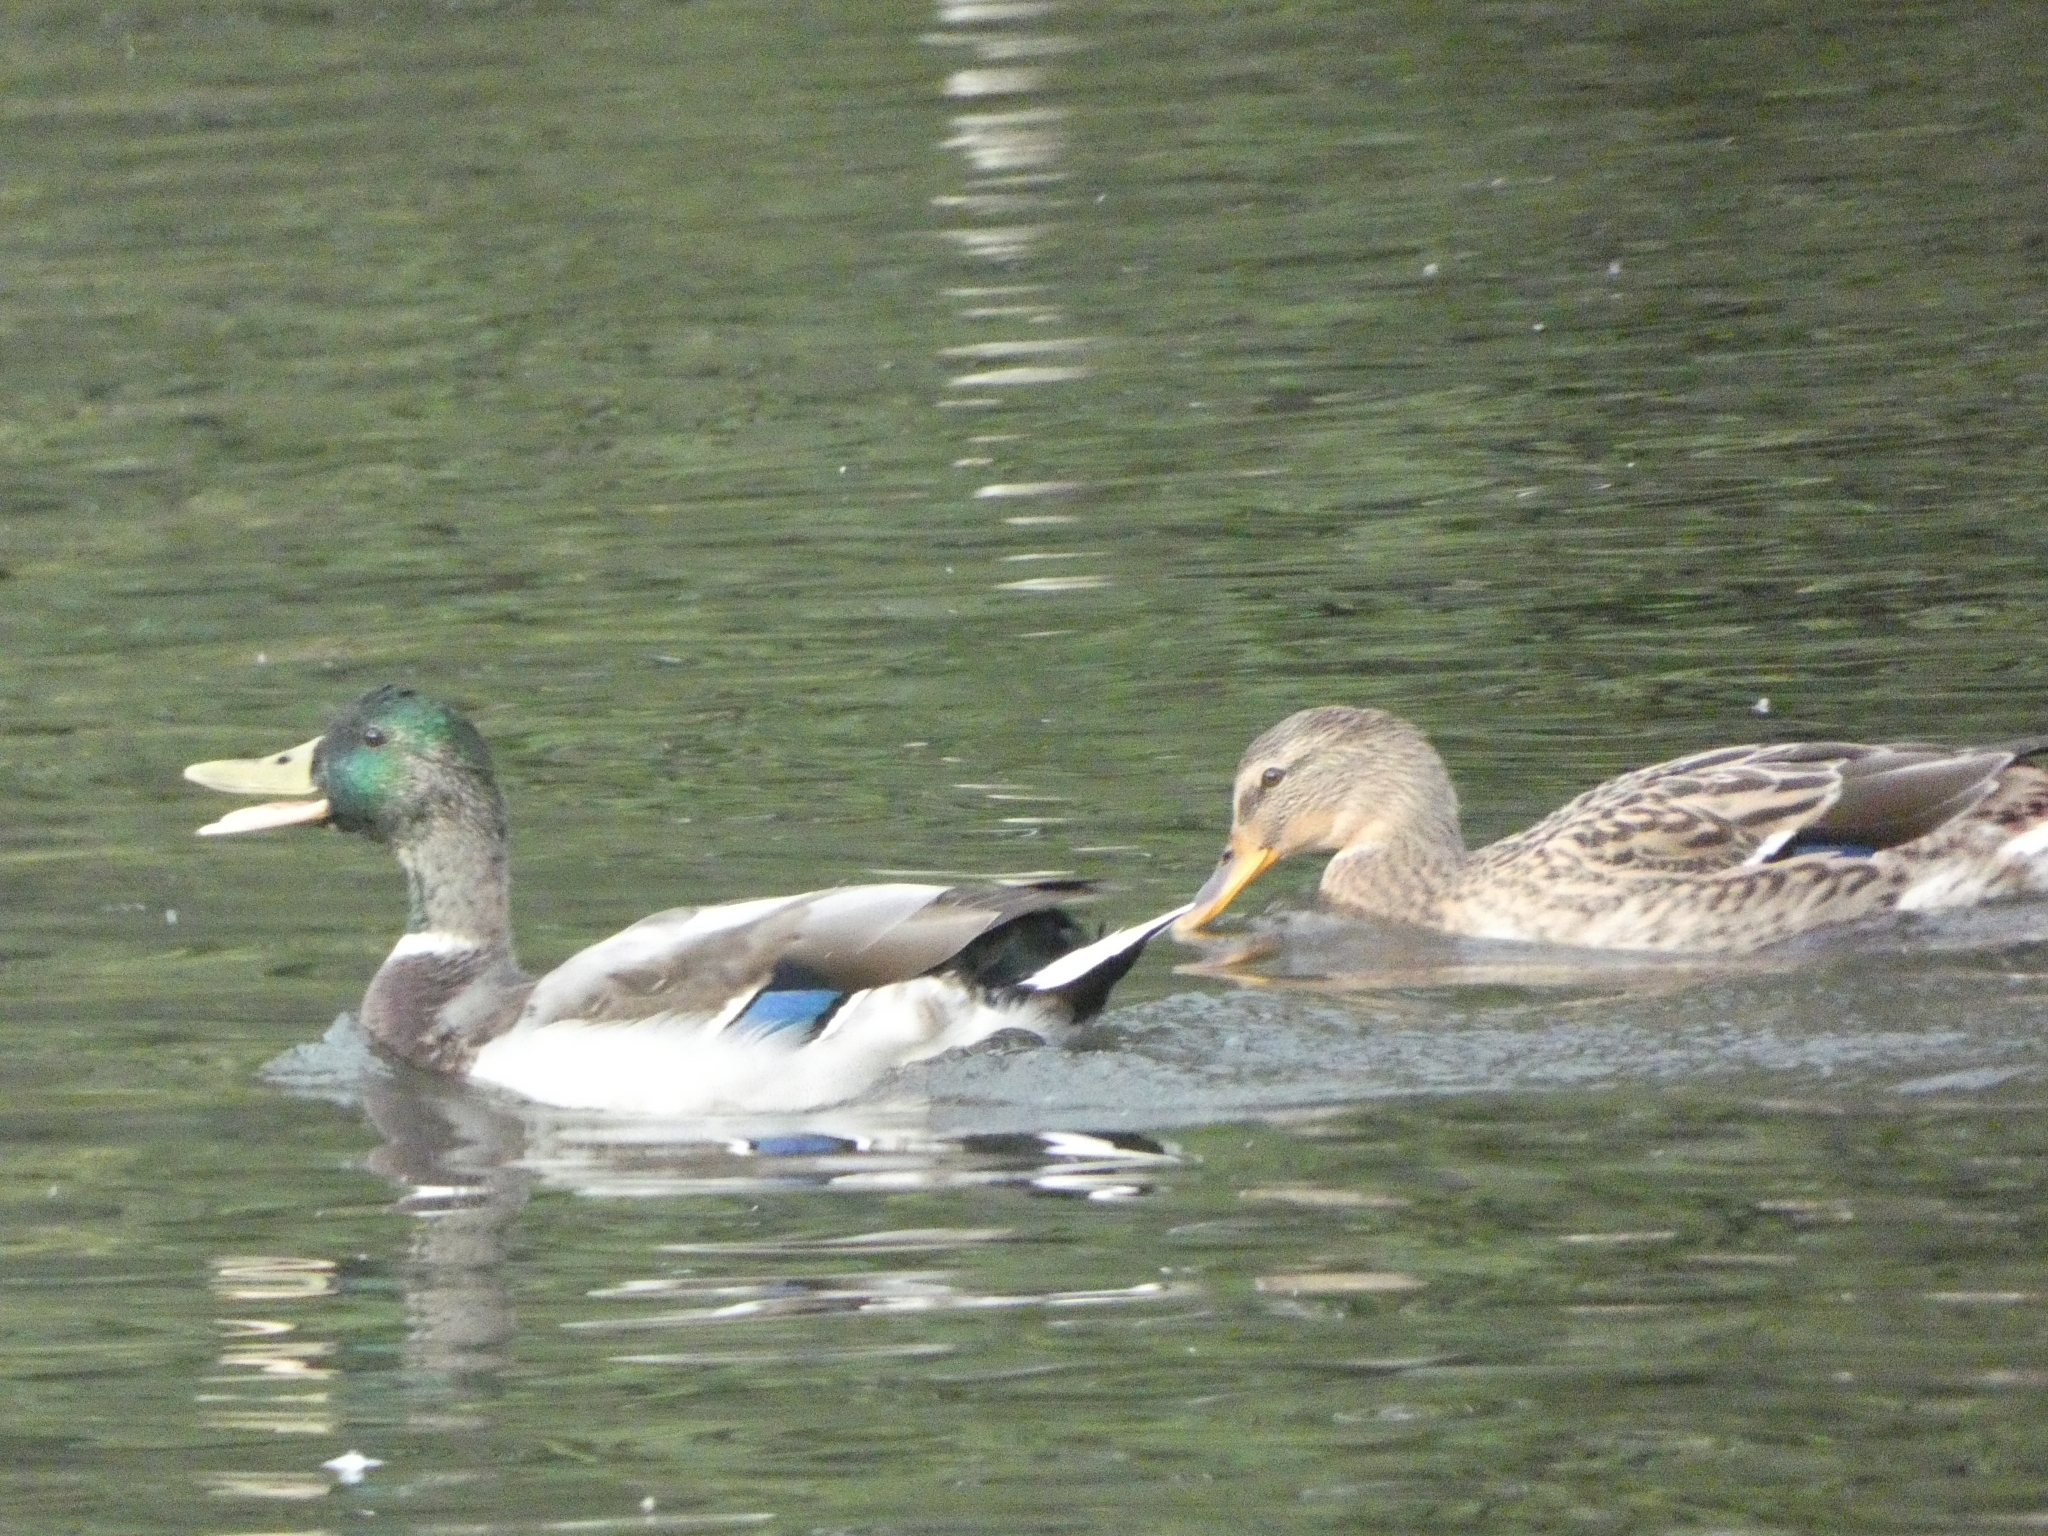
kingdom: Animalia
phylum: Chordata
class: Aves
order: Anseriformes
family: Anatidae
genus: Anas
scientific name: Anas platyrhynchos
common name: Mallard
